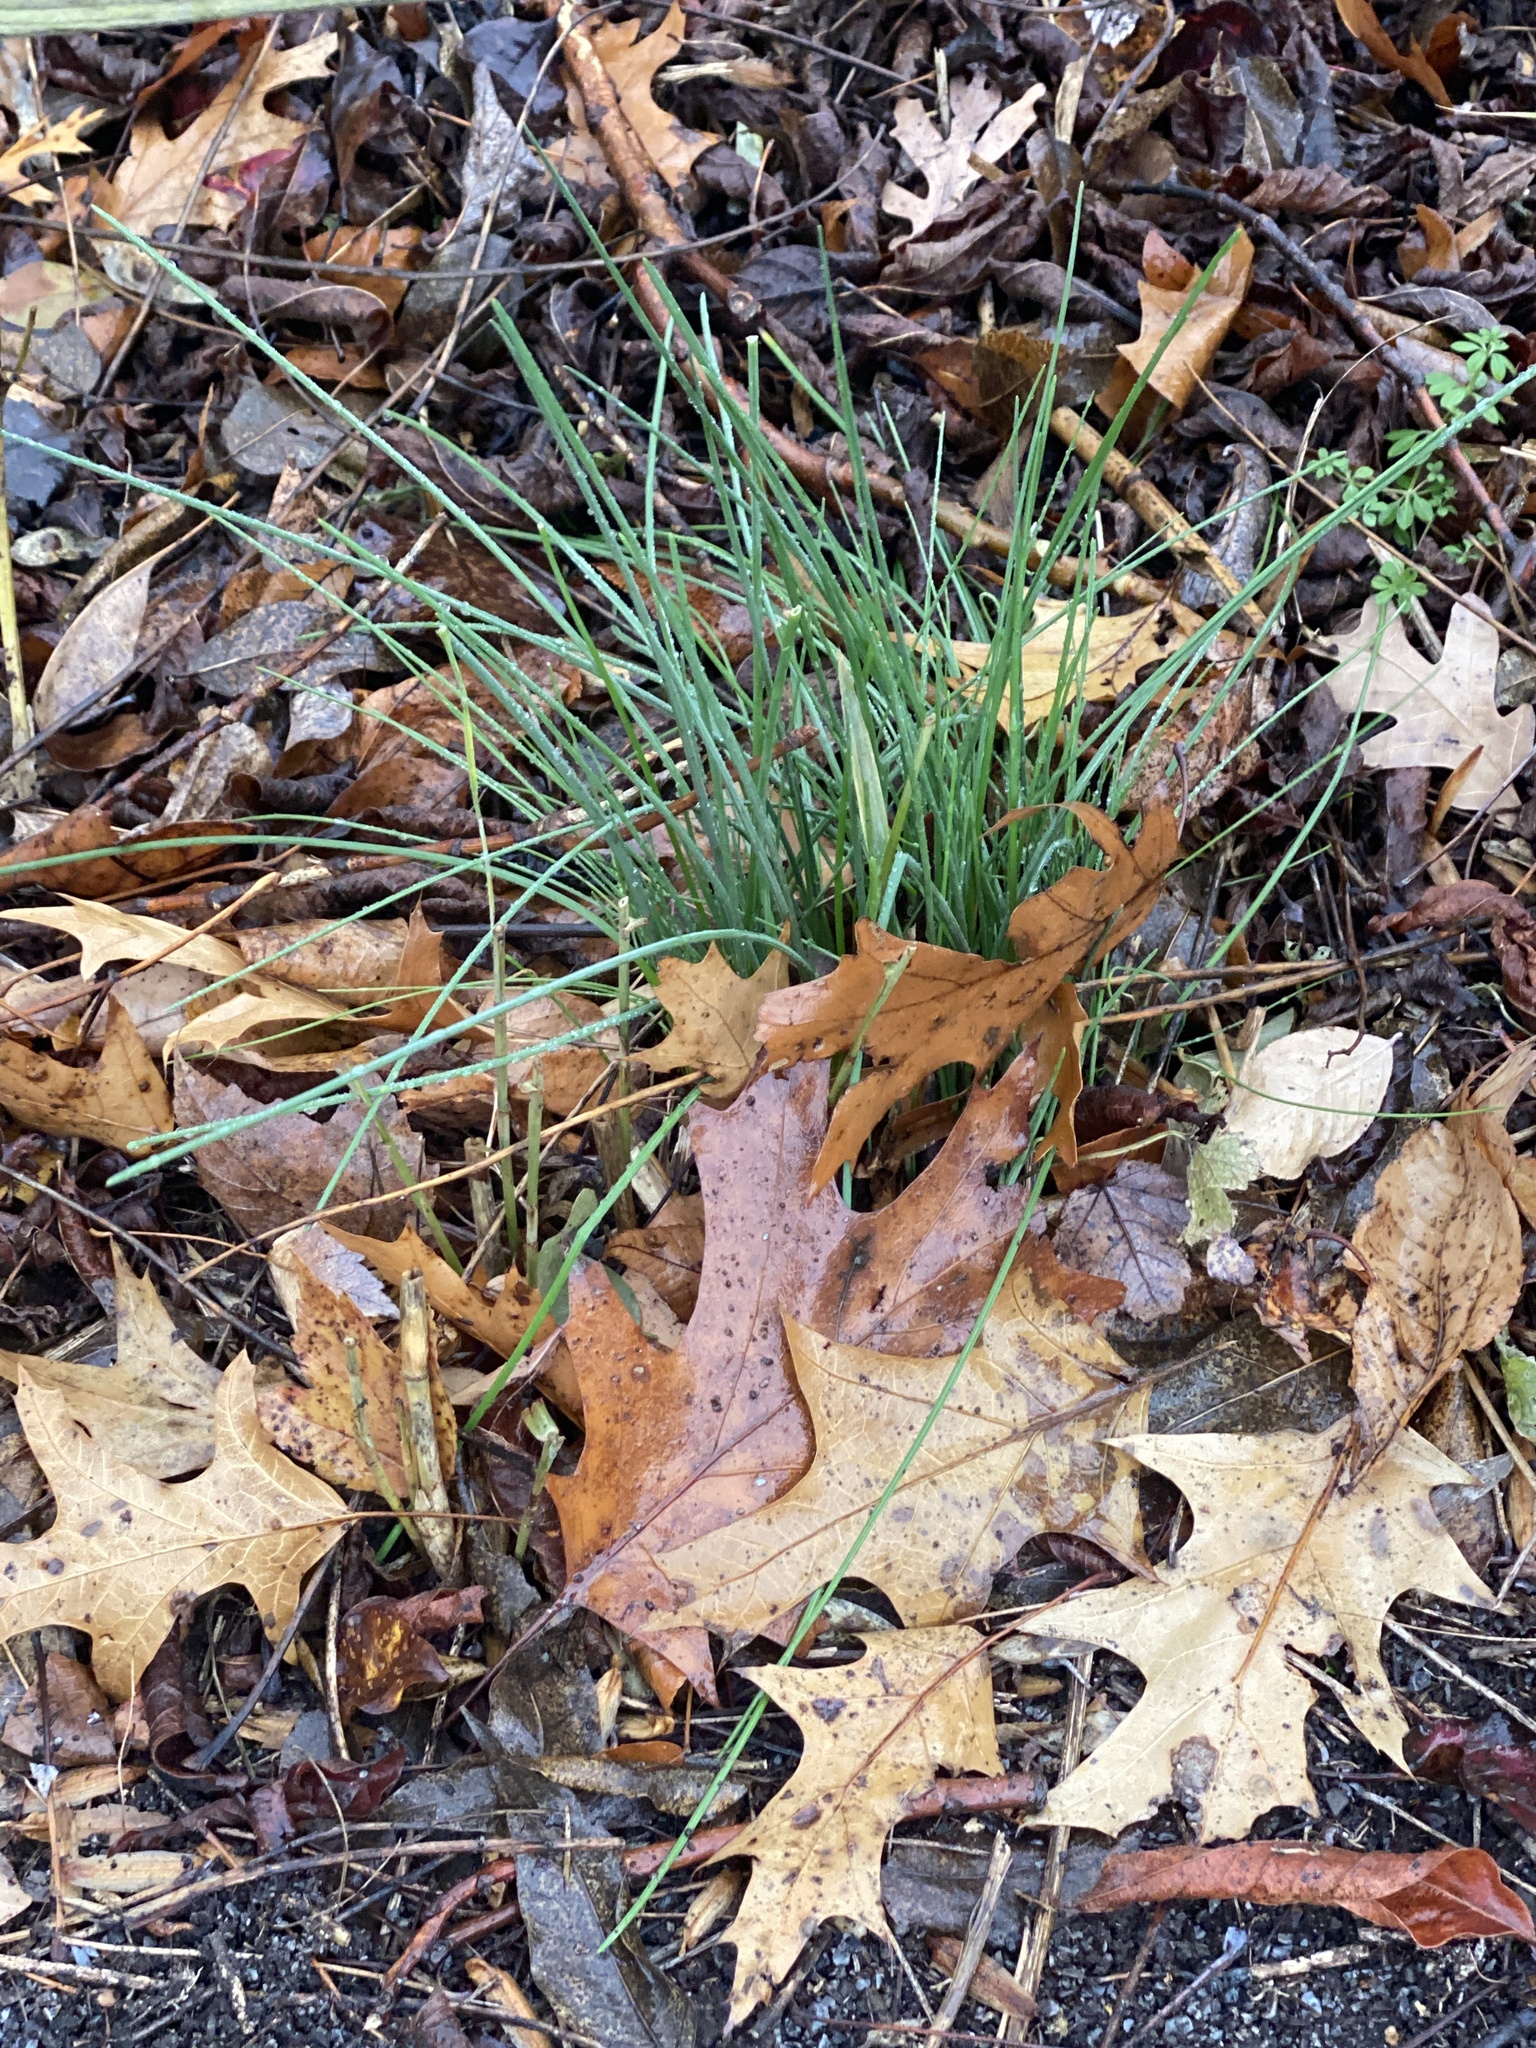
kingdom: Plantae
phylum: Tracheophyta
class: Liliopsida
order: Asparagales
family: Amaryllidaceae
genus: Allium
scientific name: Allium vineale
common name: Crow garlic
